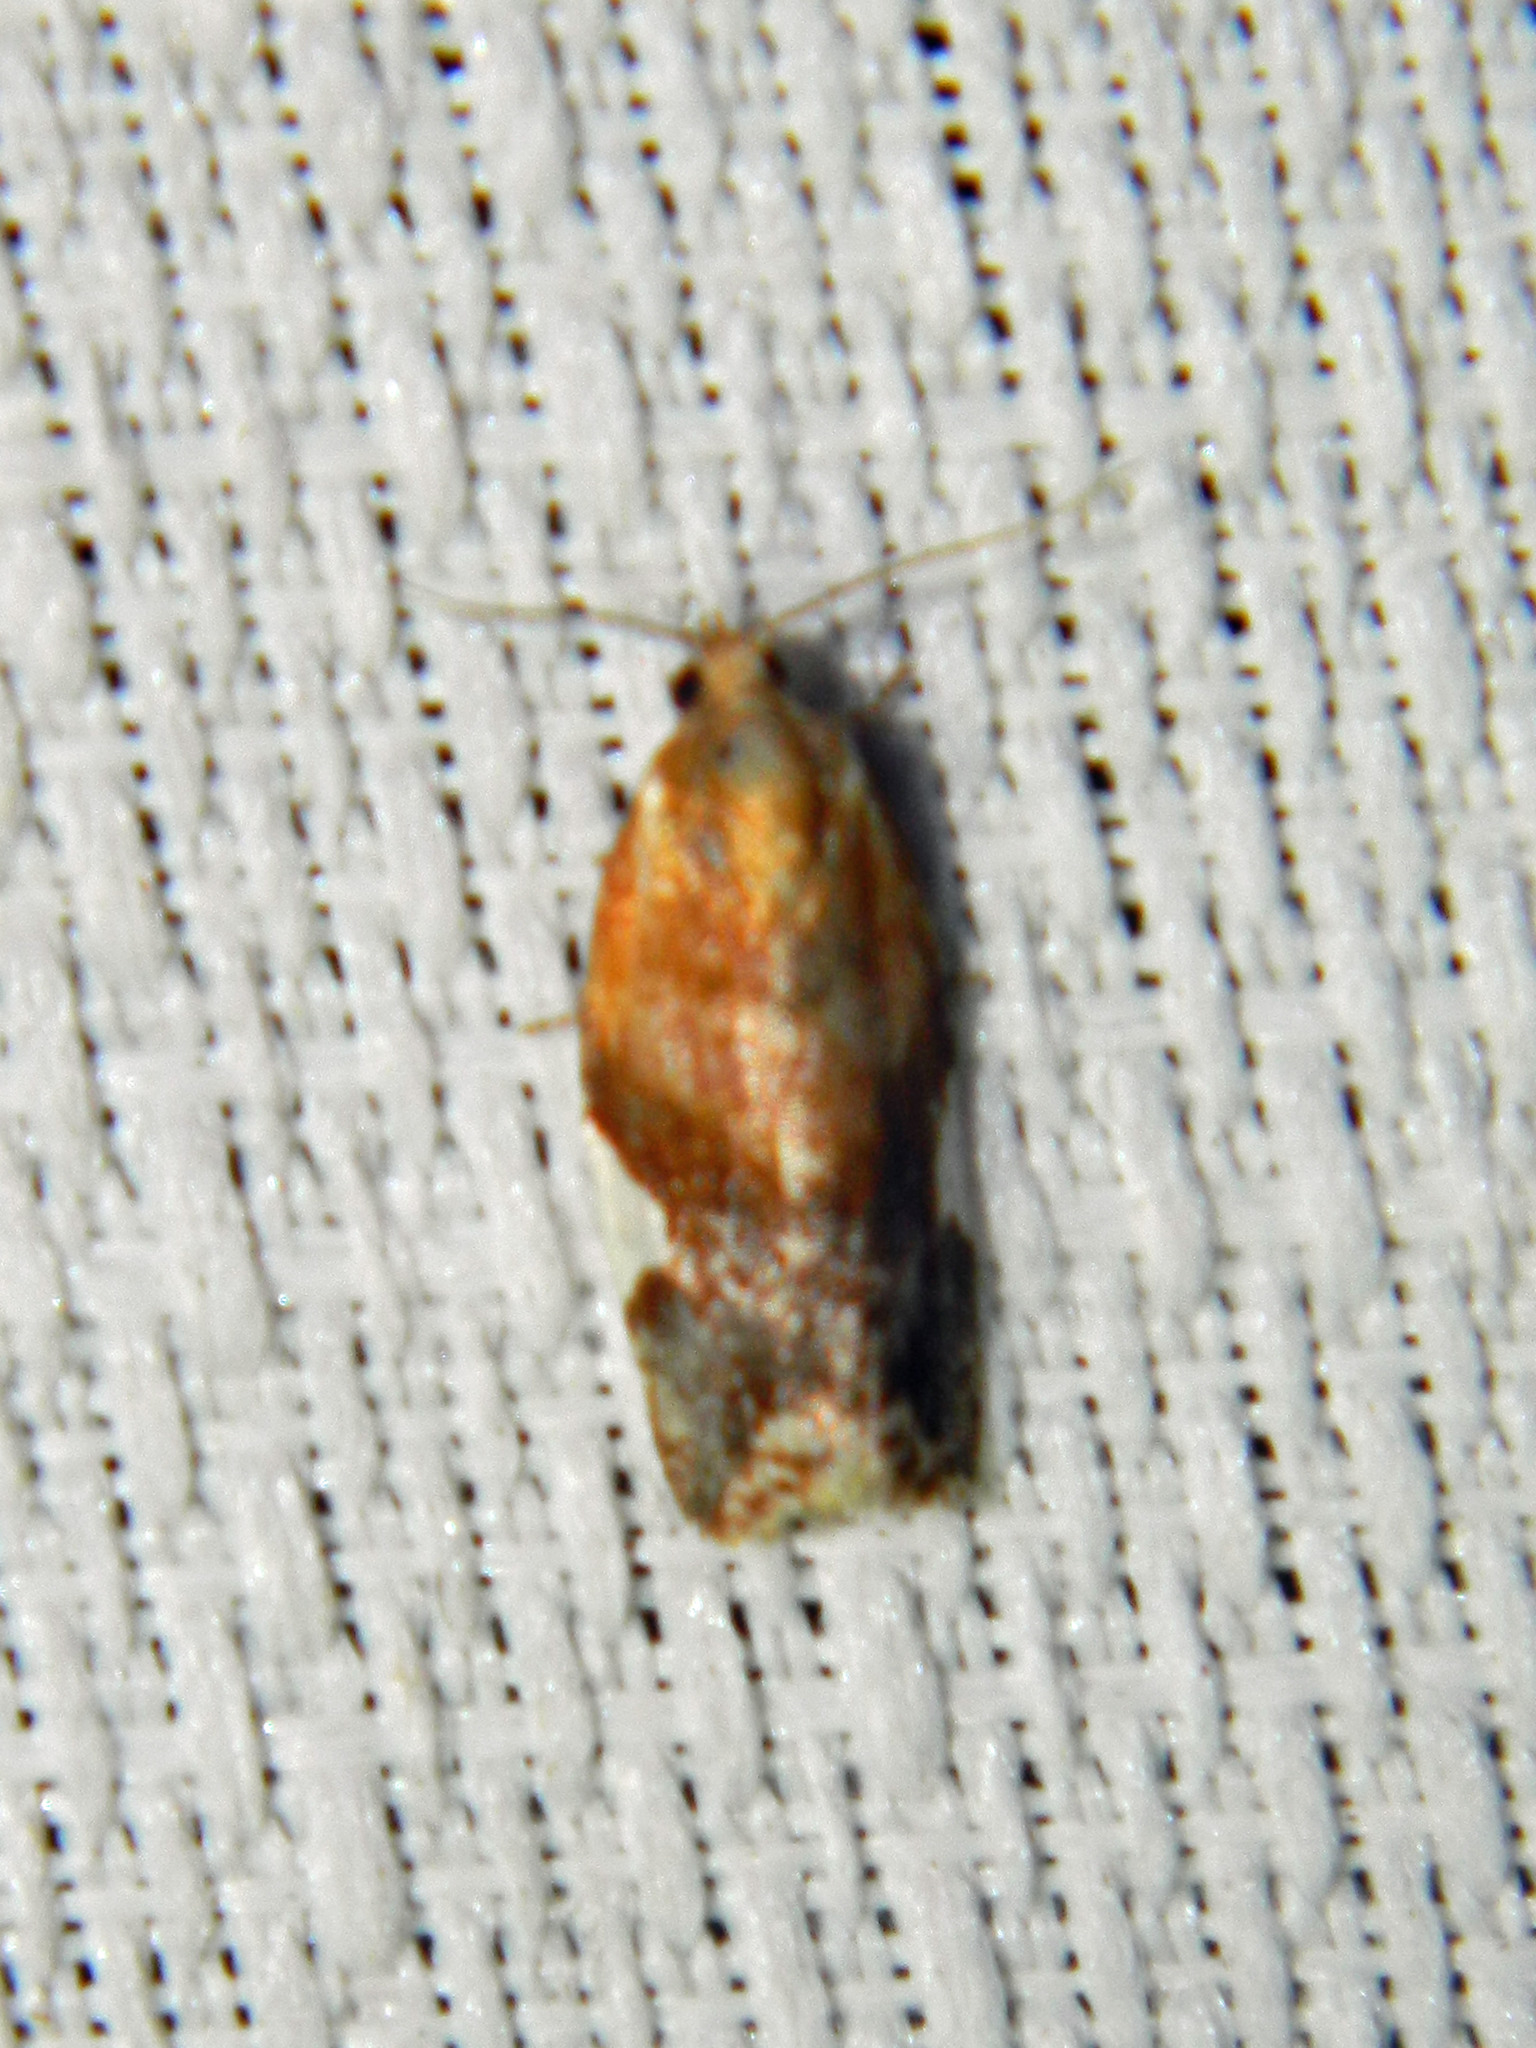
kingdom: Animalia
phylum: Arthropoda
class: Insecta
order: Lepidoptera
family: Tortricidae
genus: Clepsis
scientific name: Clepsis persicana
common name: White triangle tortrix
